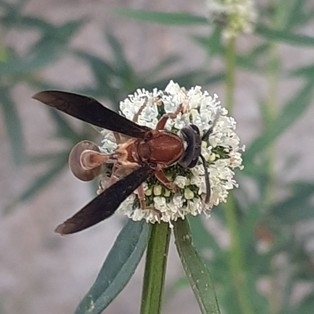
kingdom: Animalia
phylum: Arthropoda
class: Insecta
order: Hymenoptera
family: Eumenidae
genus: Polybia
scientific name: Polybia sericea
